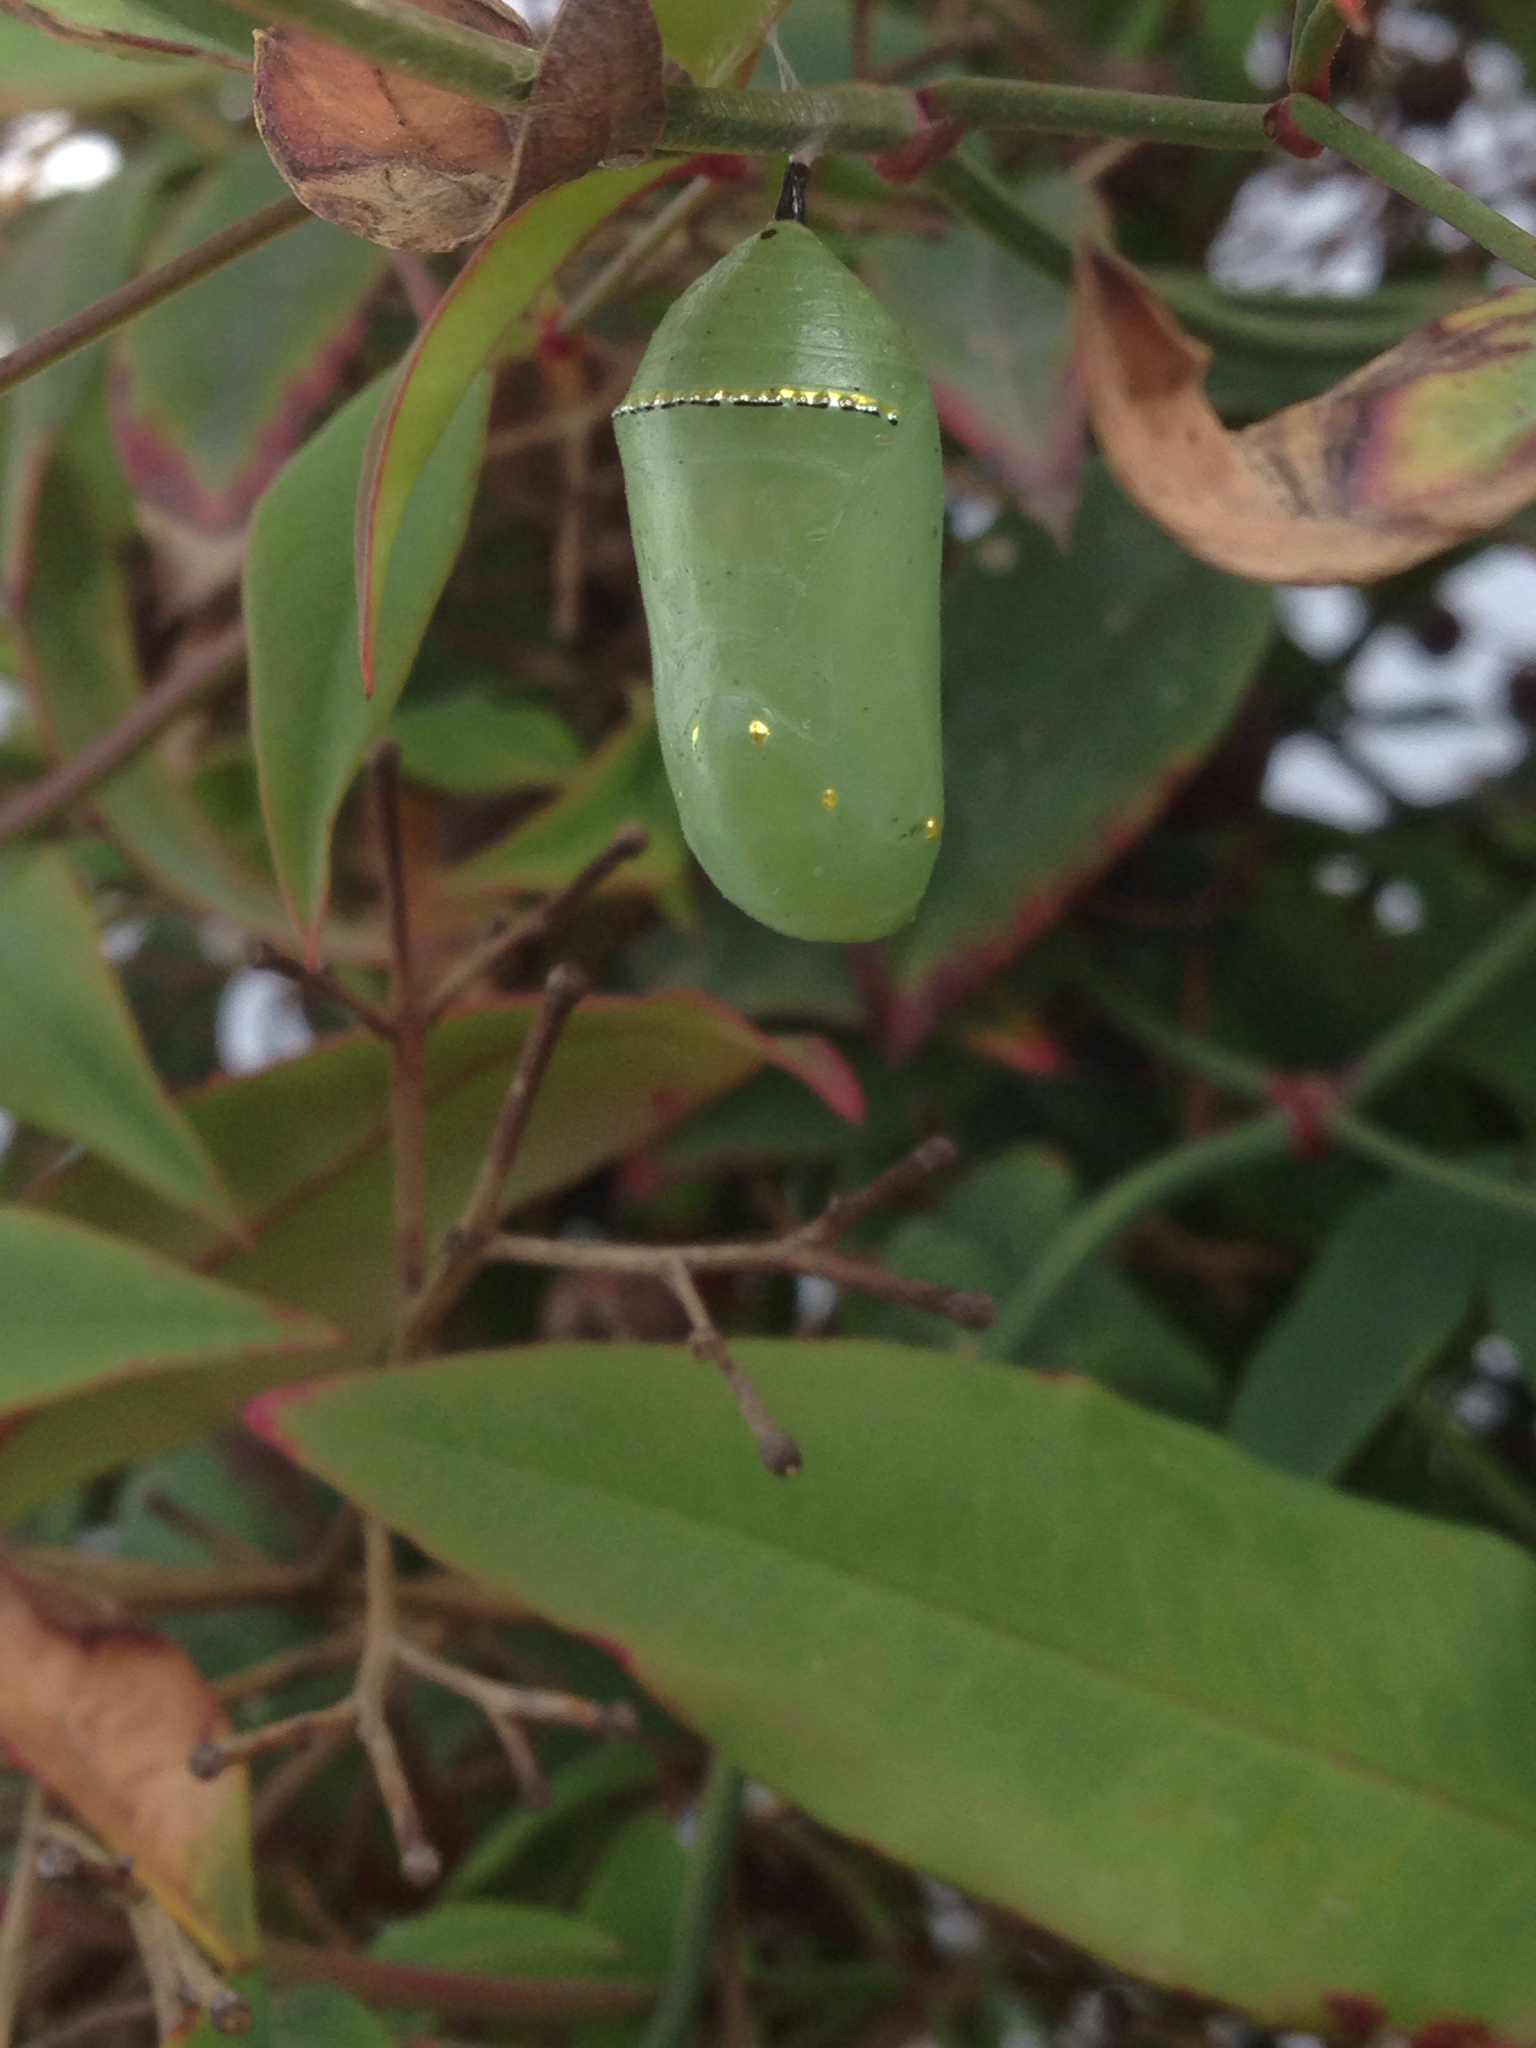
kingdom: Animalia
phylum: Arthropoda
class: Insecta
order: Lepidoptera
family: Nymphalidae
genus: Danaus
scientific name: Danaus plexippus
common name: Monarch
